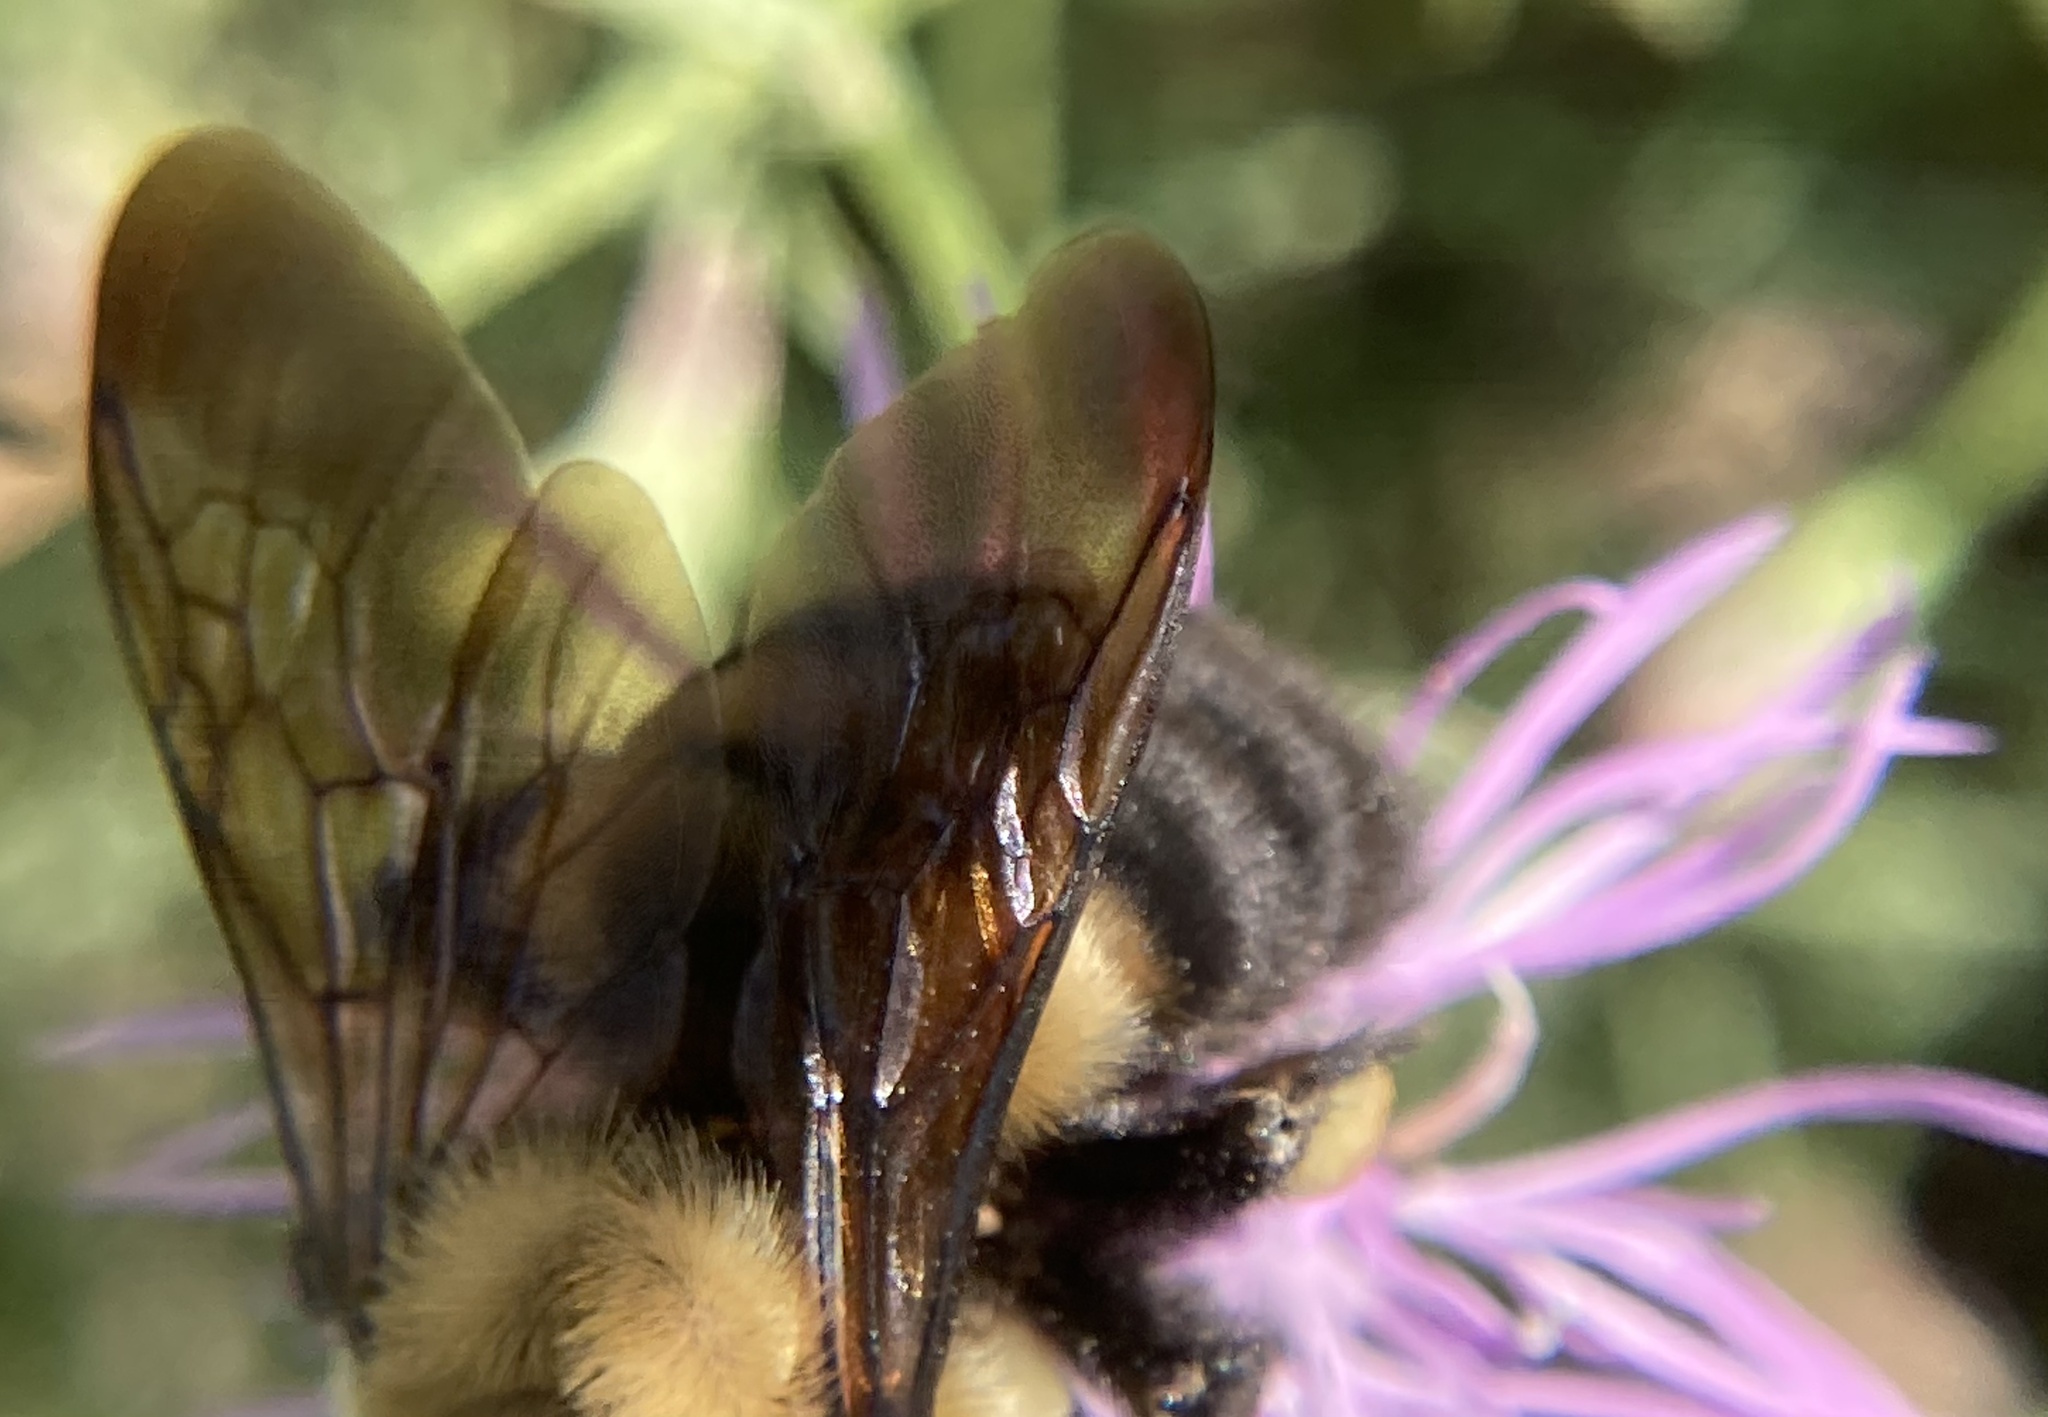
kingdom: Animalia
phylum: Arthropoda
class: Insecta
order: Hymenoptera
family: Apidae
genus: Bombus
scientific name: Bombus griseocollis
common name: Brown-belted bumble bee
